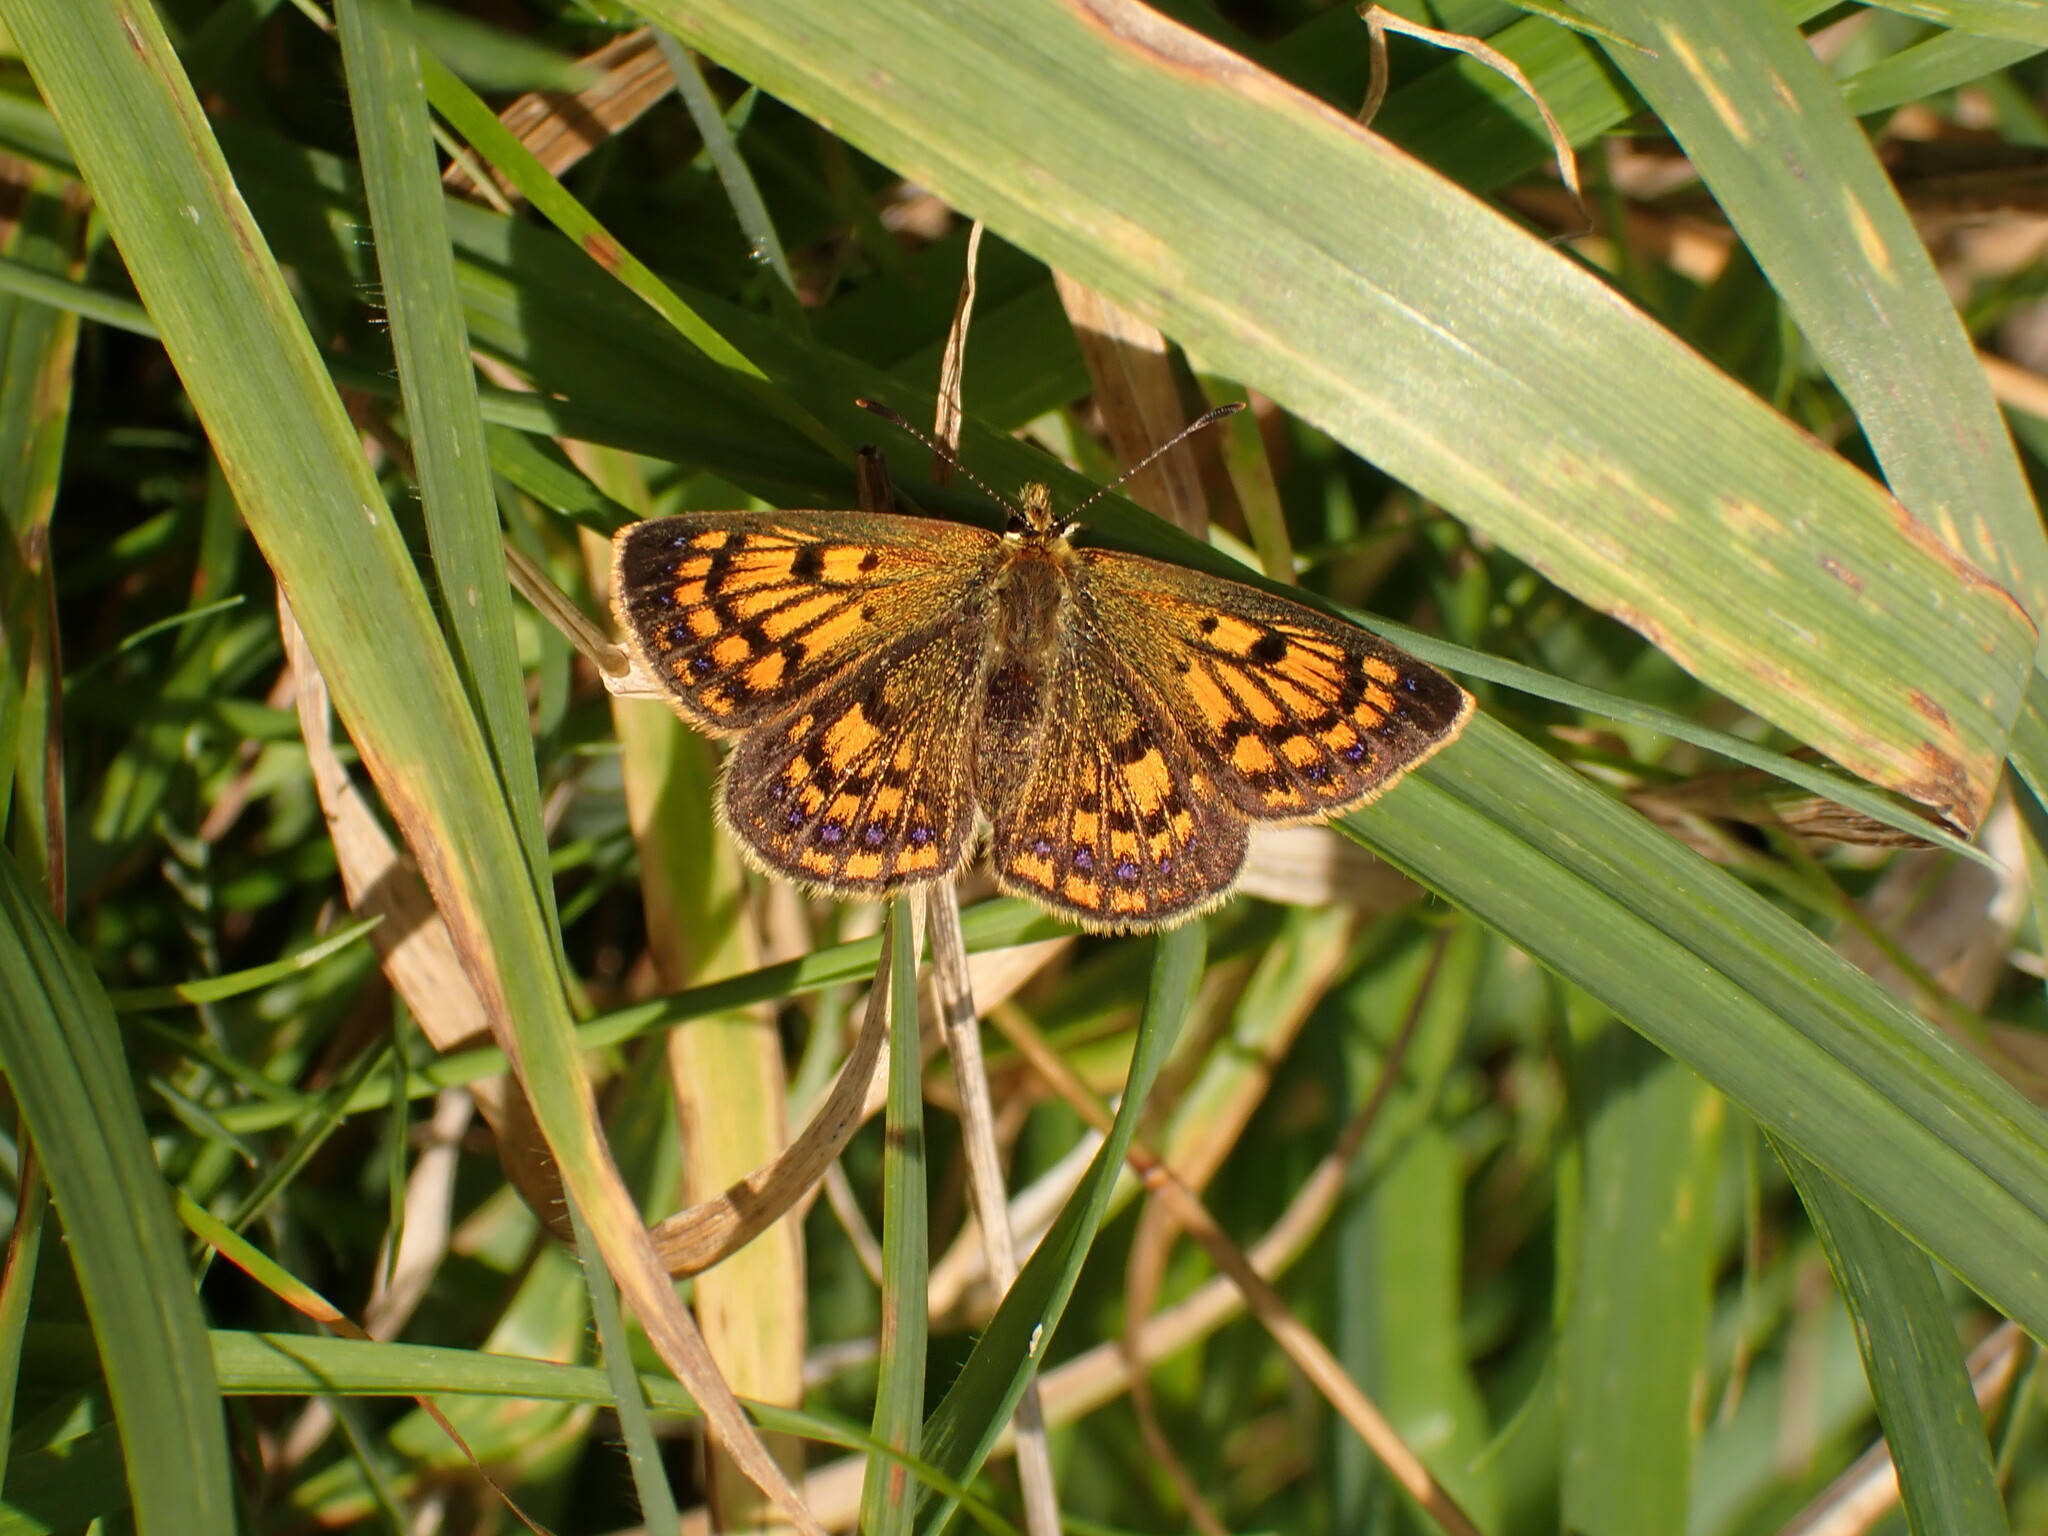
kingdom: Animalia
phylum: Arthropoda
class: Insecta
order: Lepidoptera
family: Lycaenidae
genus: Lycaena
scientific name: Lycaena
